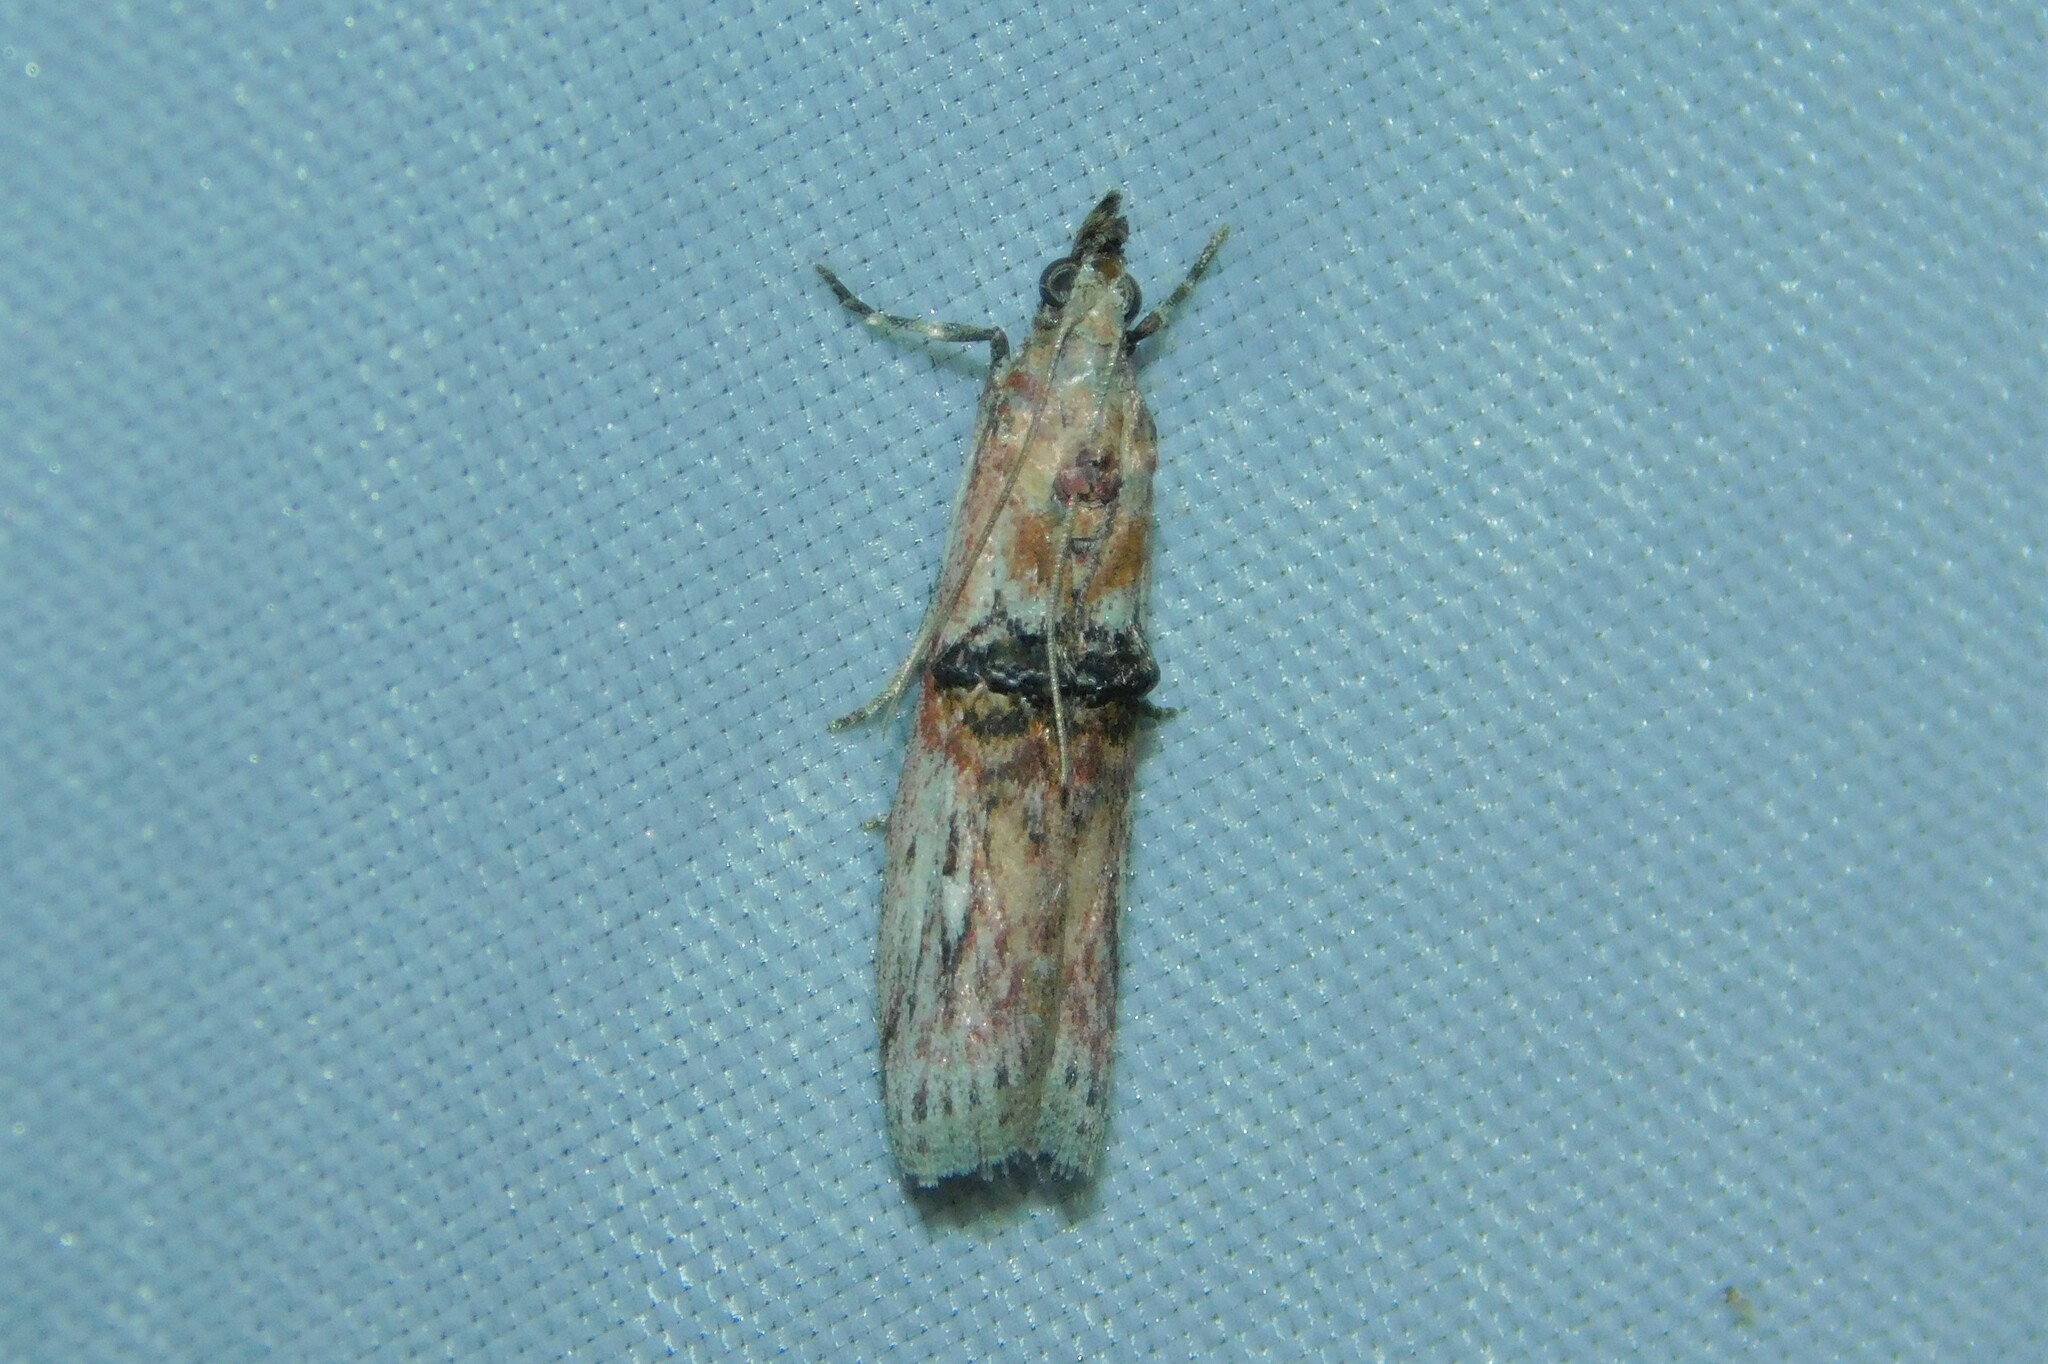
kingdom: Animalia
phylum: Arthropoda
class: Insecta
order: Lepidoptera
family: Pyralidae
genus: Nephopterix
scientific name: Nephopterix angustella
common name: Spindle knot-horn
